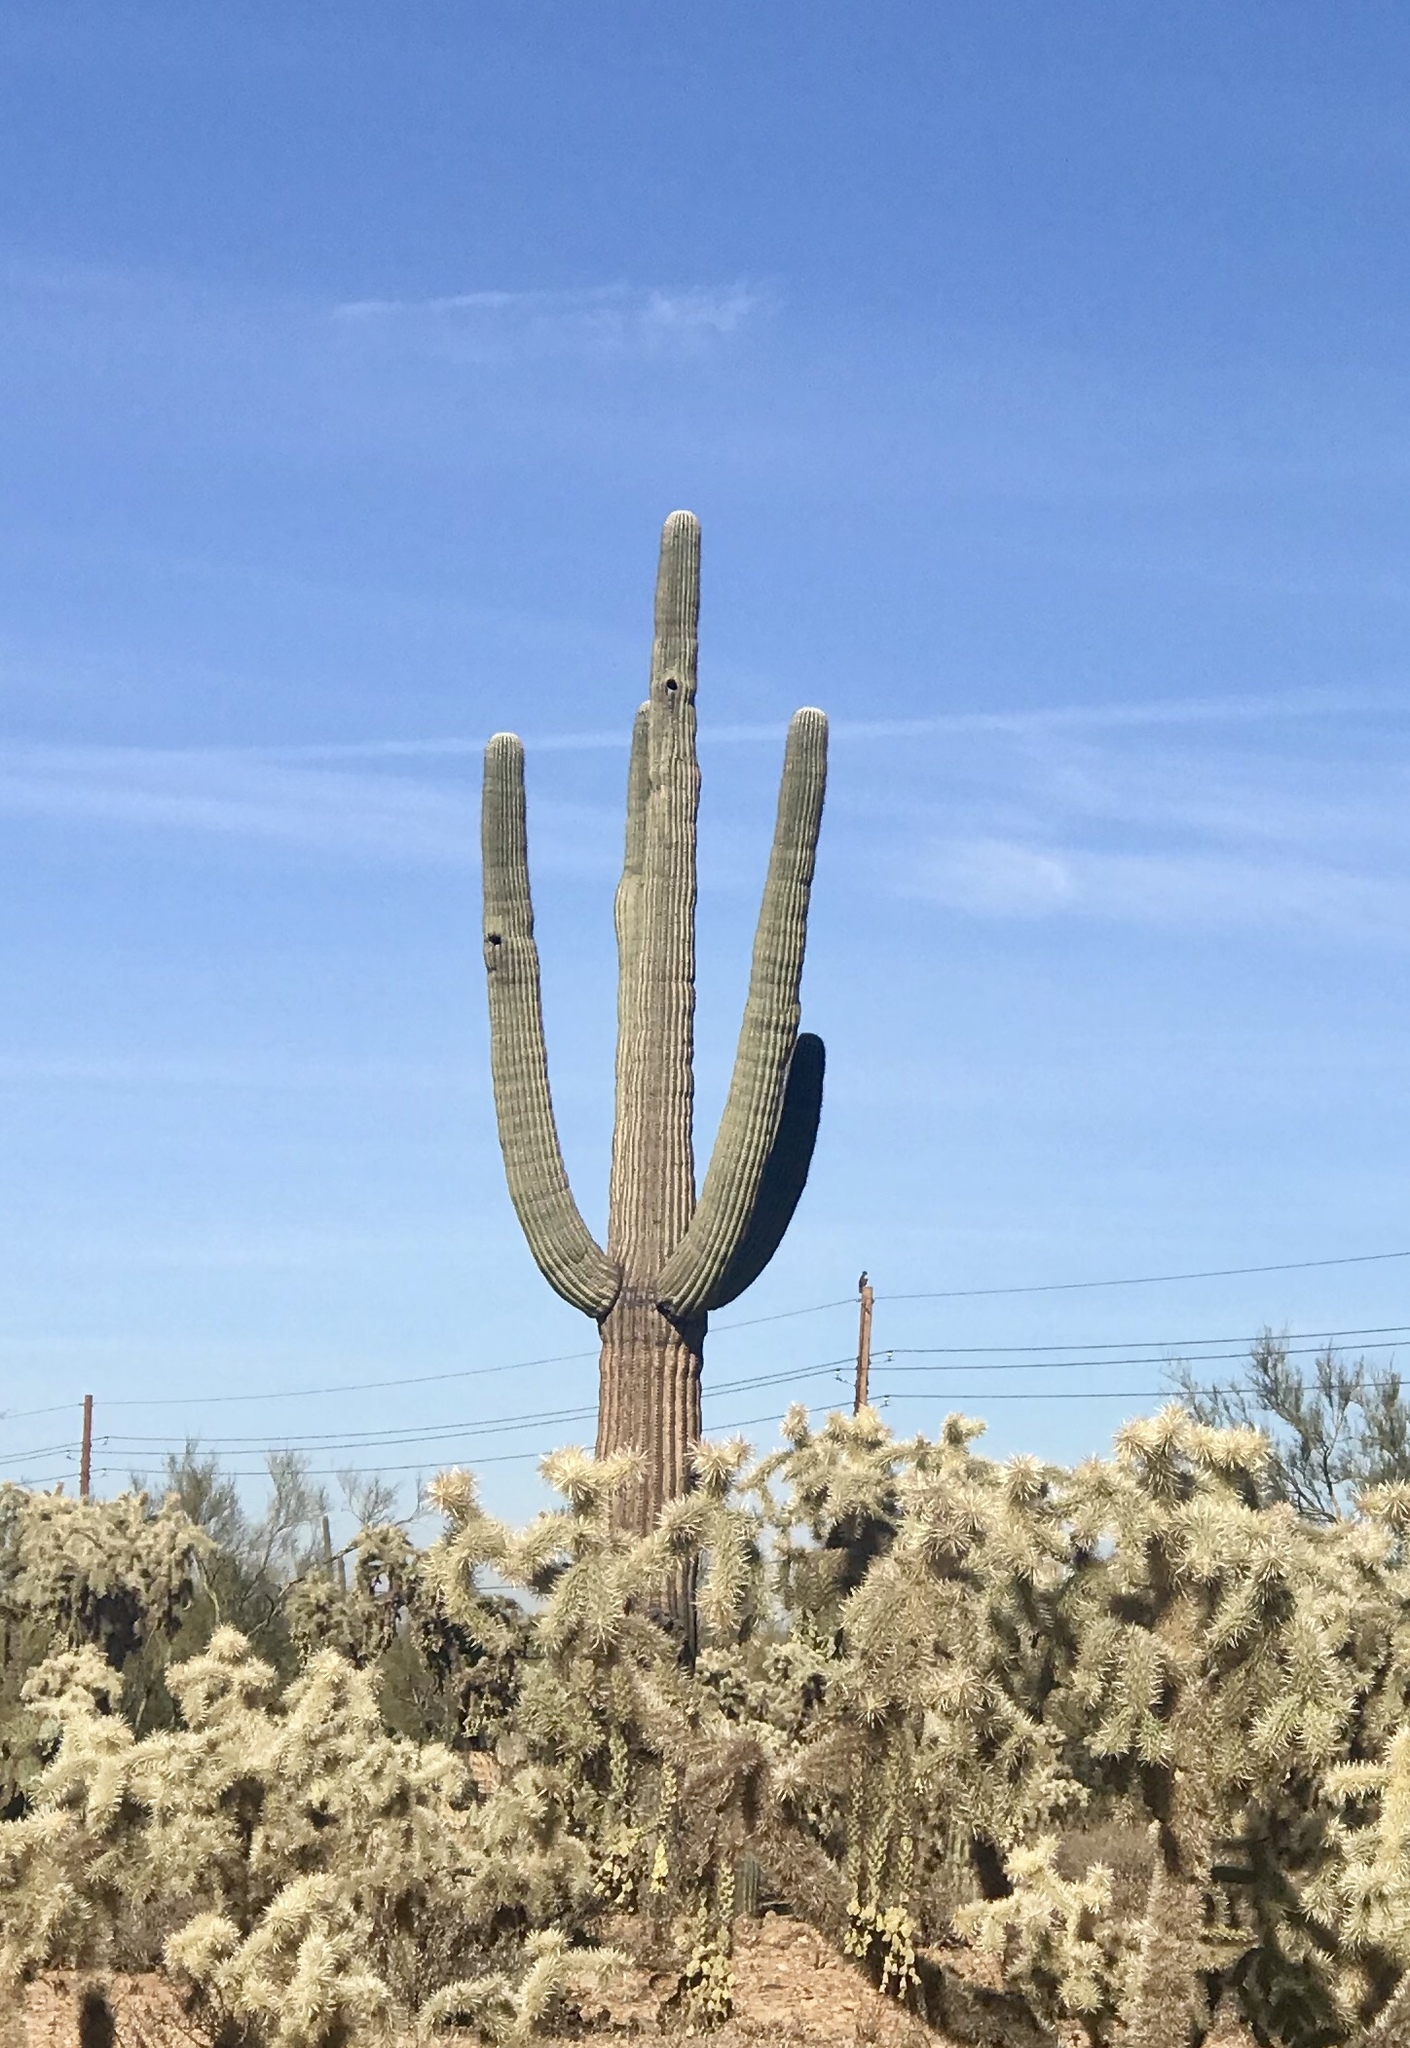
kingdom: Plantae
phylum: Tracheophyta
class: Magnoliopsida
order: Caryophyllales
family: Cactaceae
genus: Carnegiea
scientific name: Carnegiea gigantea
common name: Saguaro
